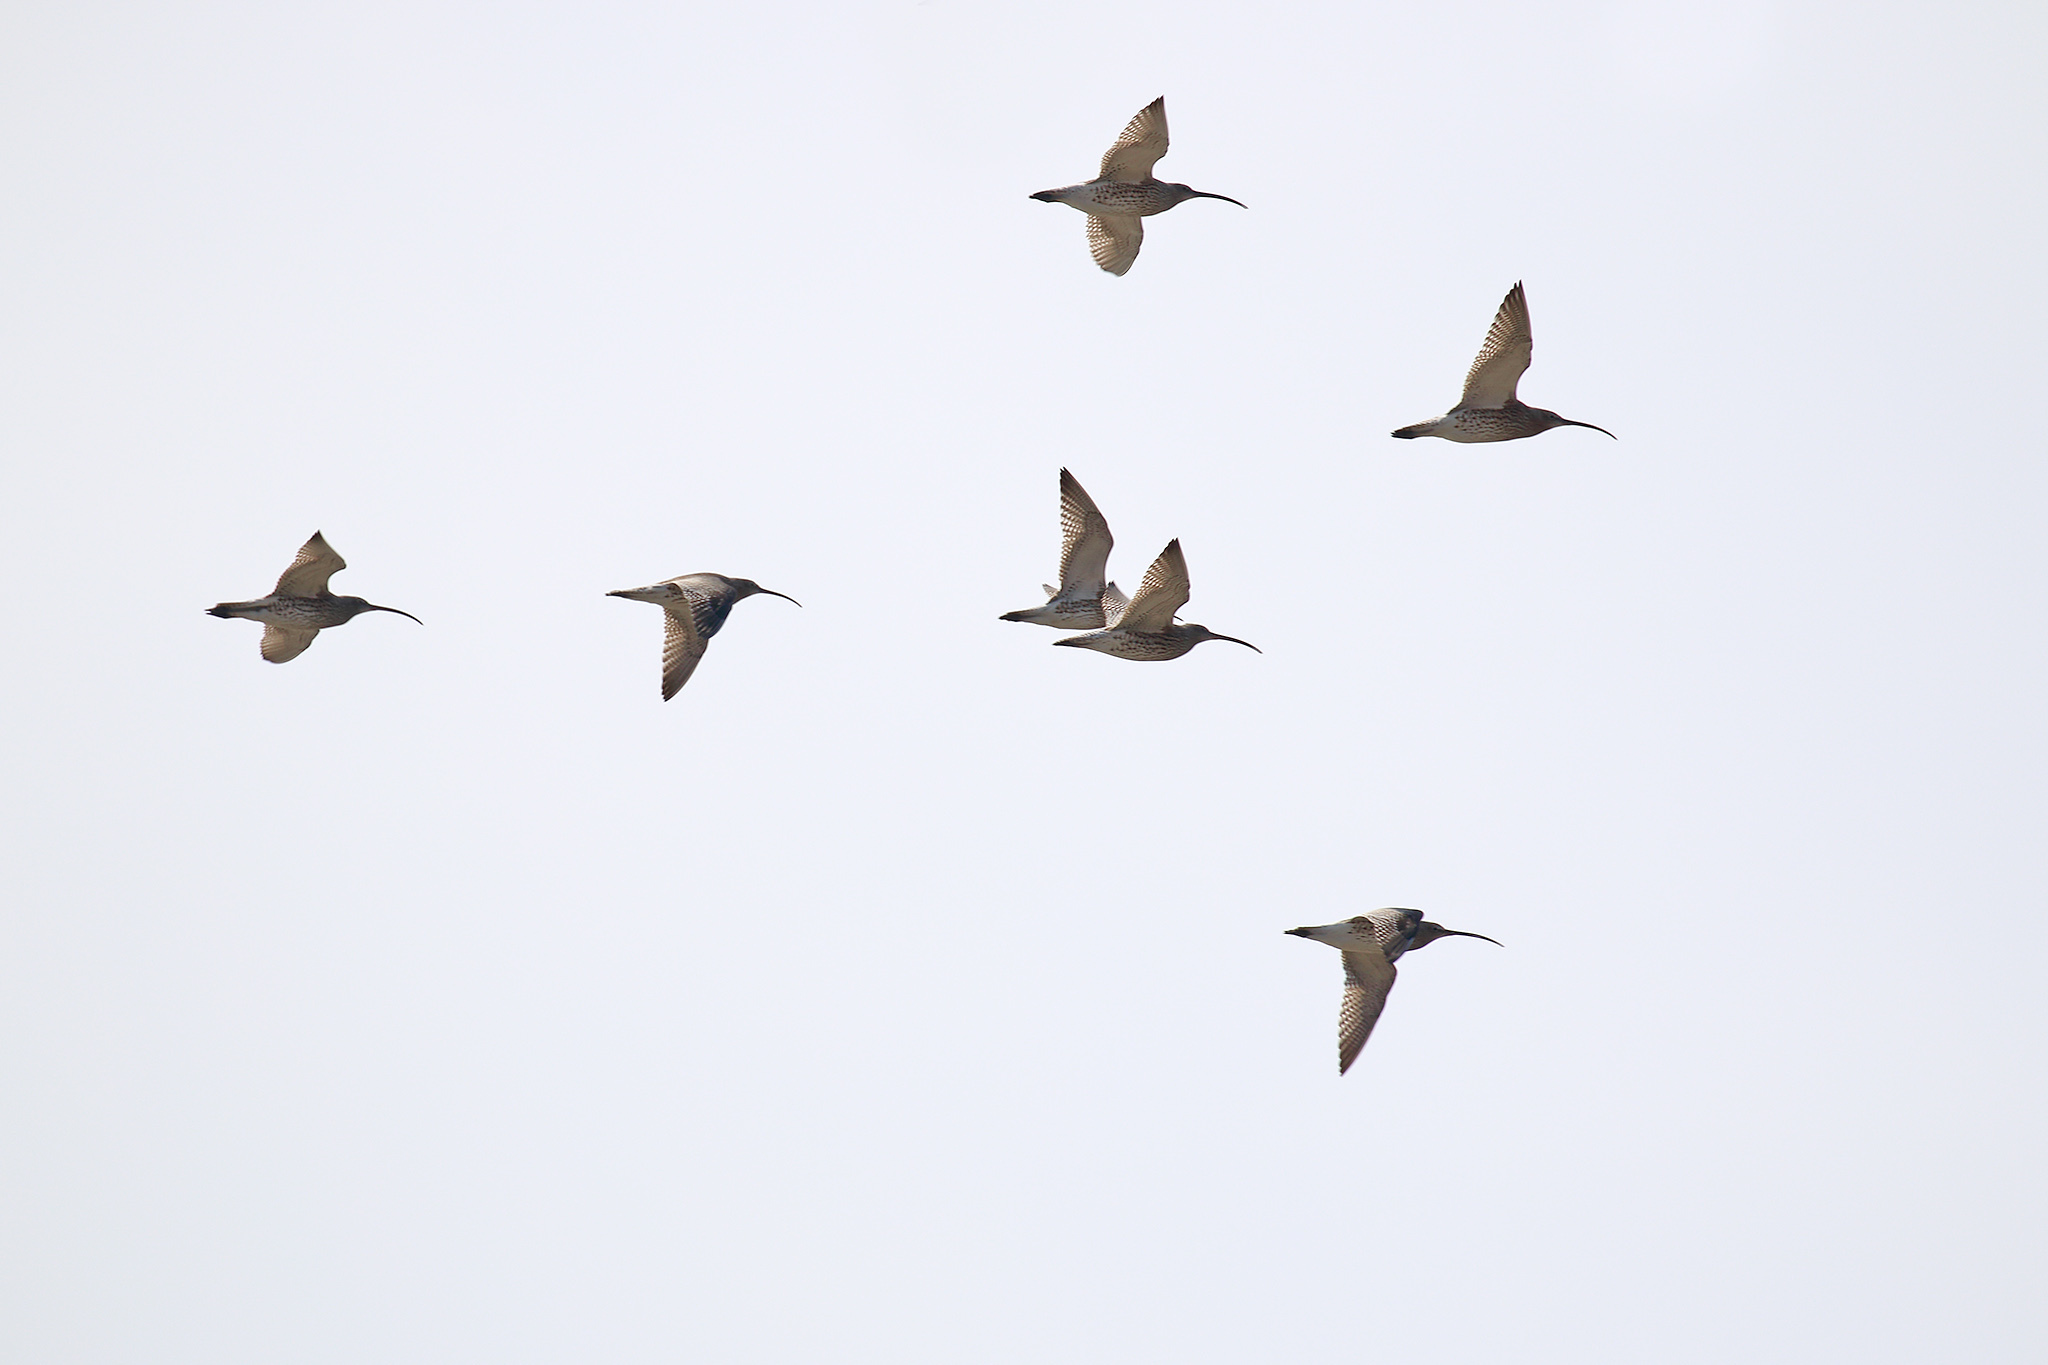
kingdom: Animalia
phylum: Chordata
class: Aves
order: Charadriiformes
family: Scolopacidae
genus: Numenius
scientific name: Numenius arquata
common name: Eurasian curlew
